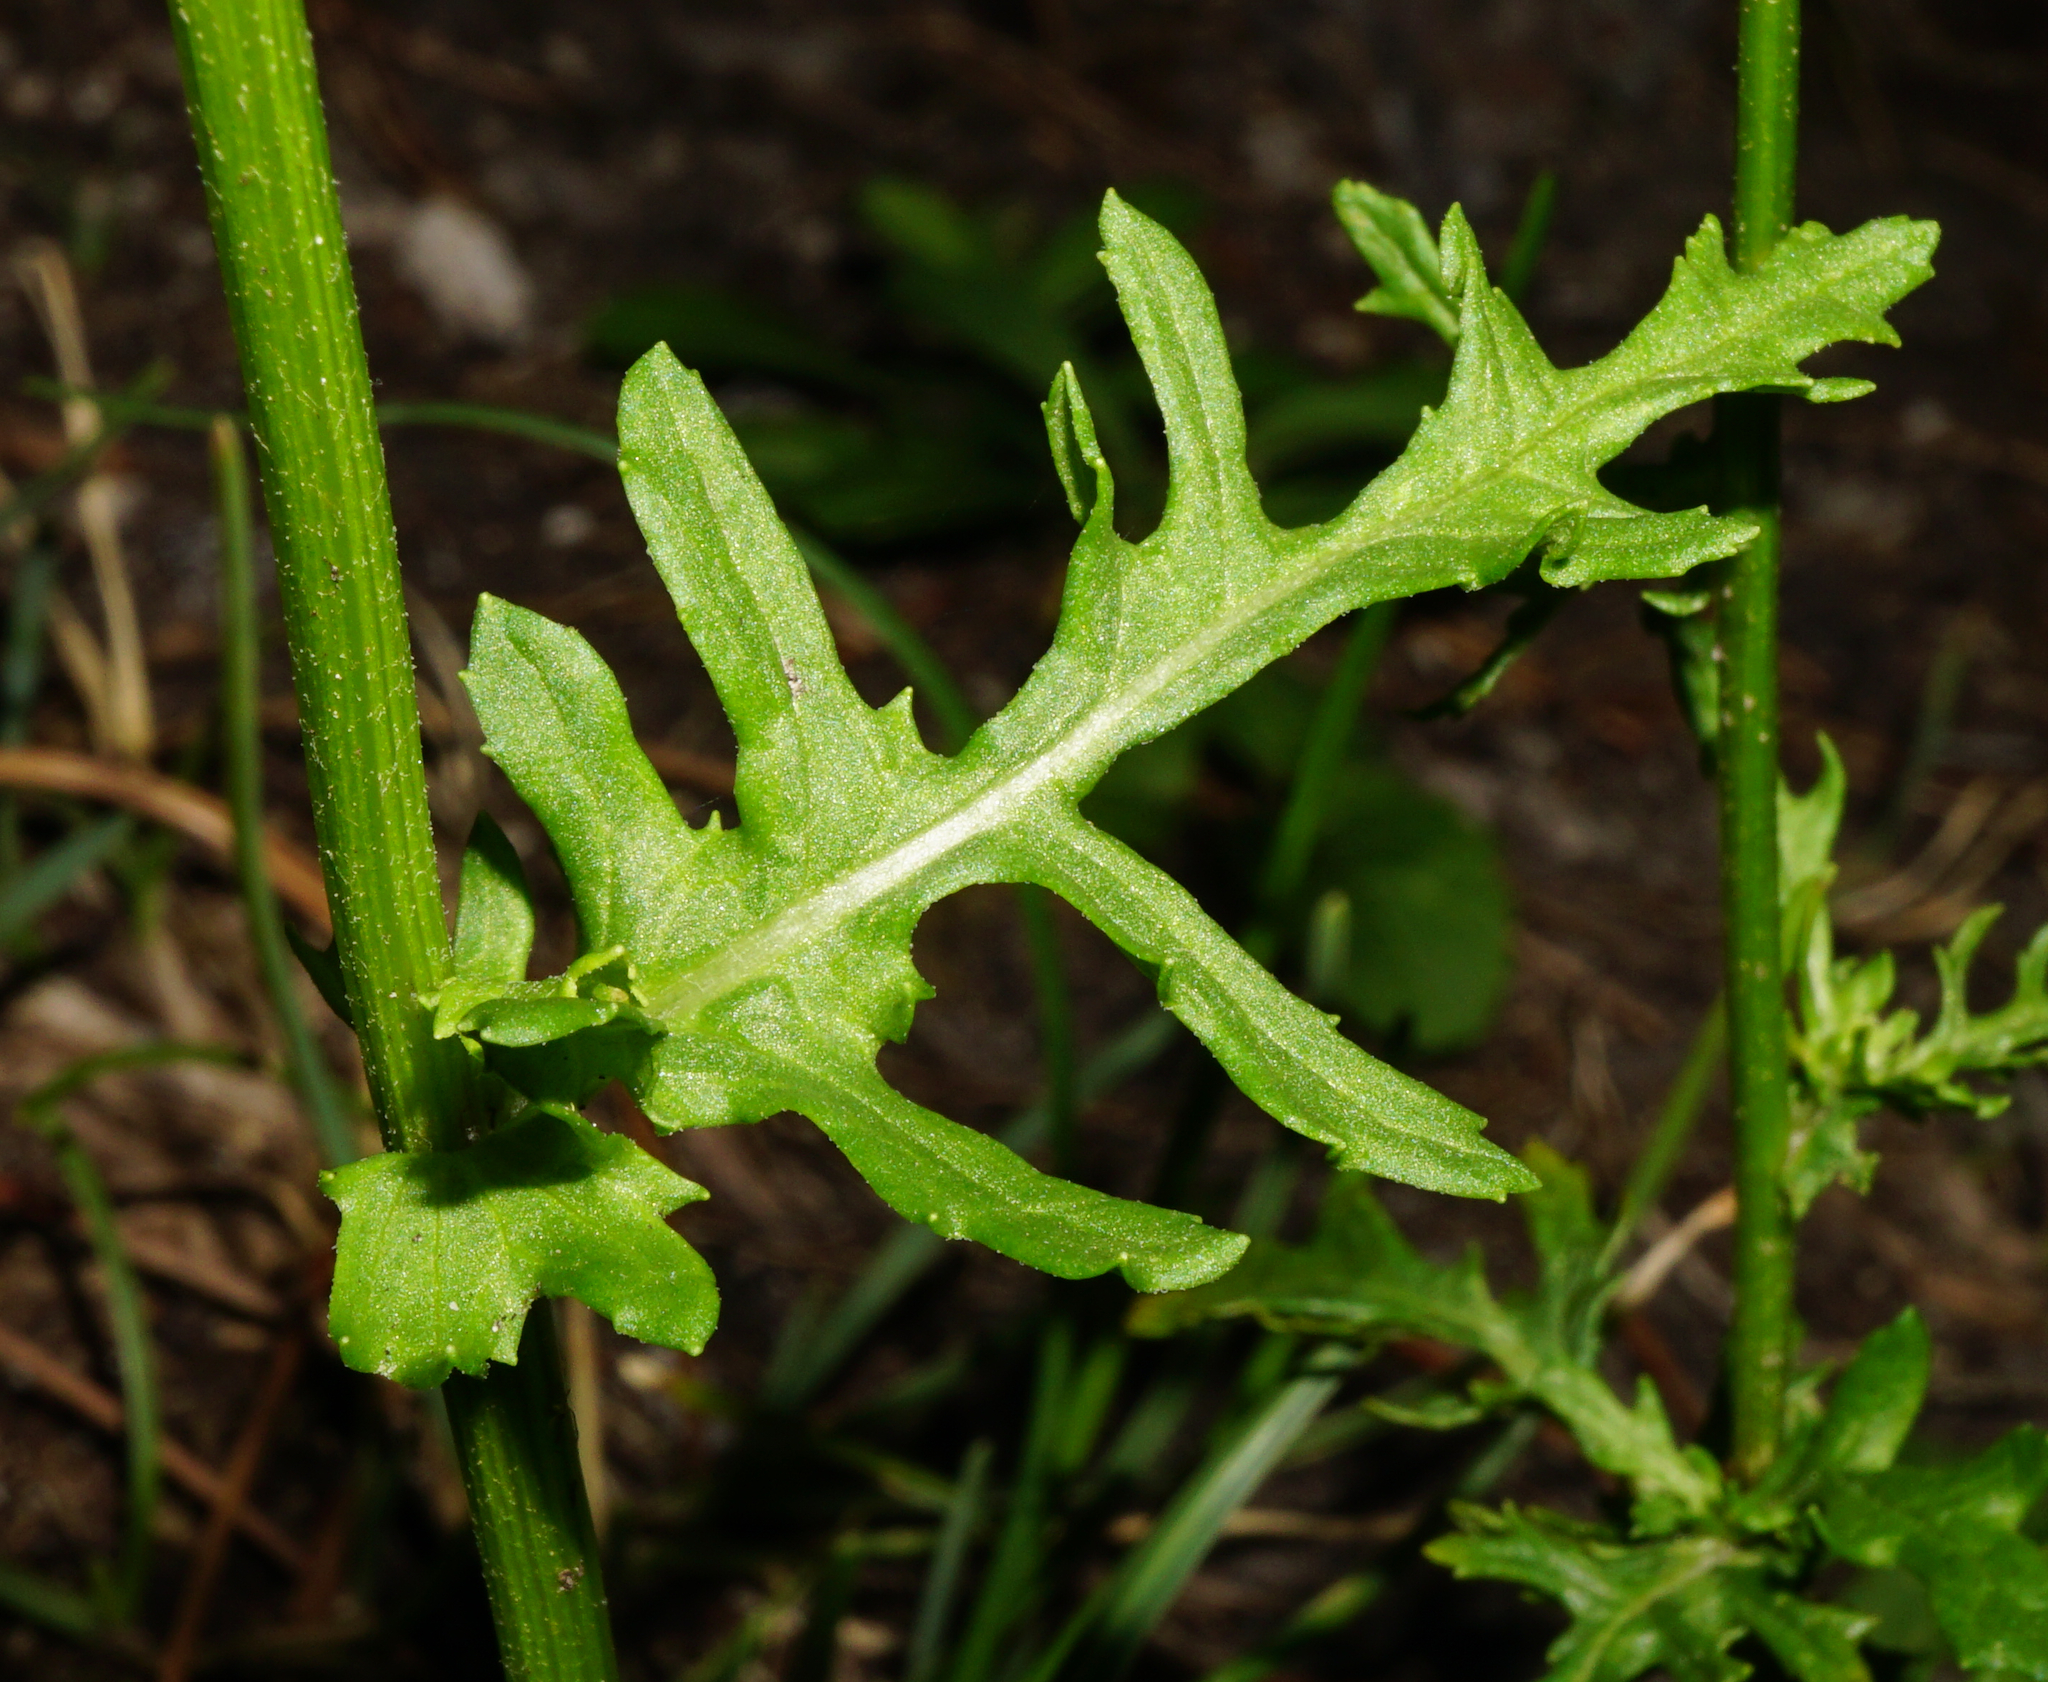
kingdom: Plantae
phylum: Tracheophyta
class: Magnoliopsida
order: Asterales
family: Asteraceae
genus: Jacobaea
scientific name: Jacobaea vulgaris
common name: Stinking willie
